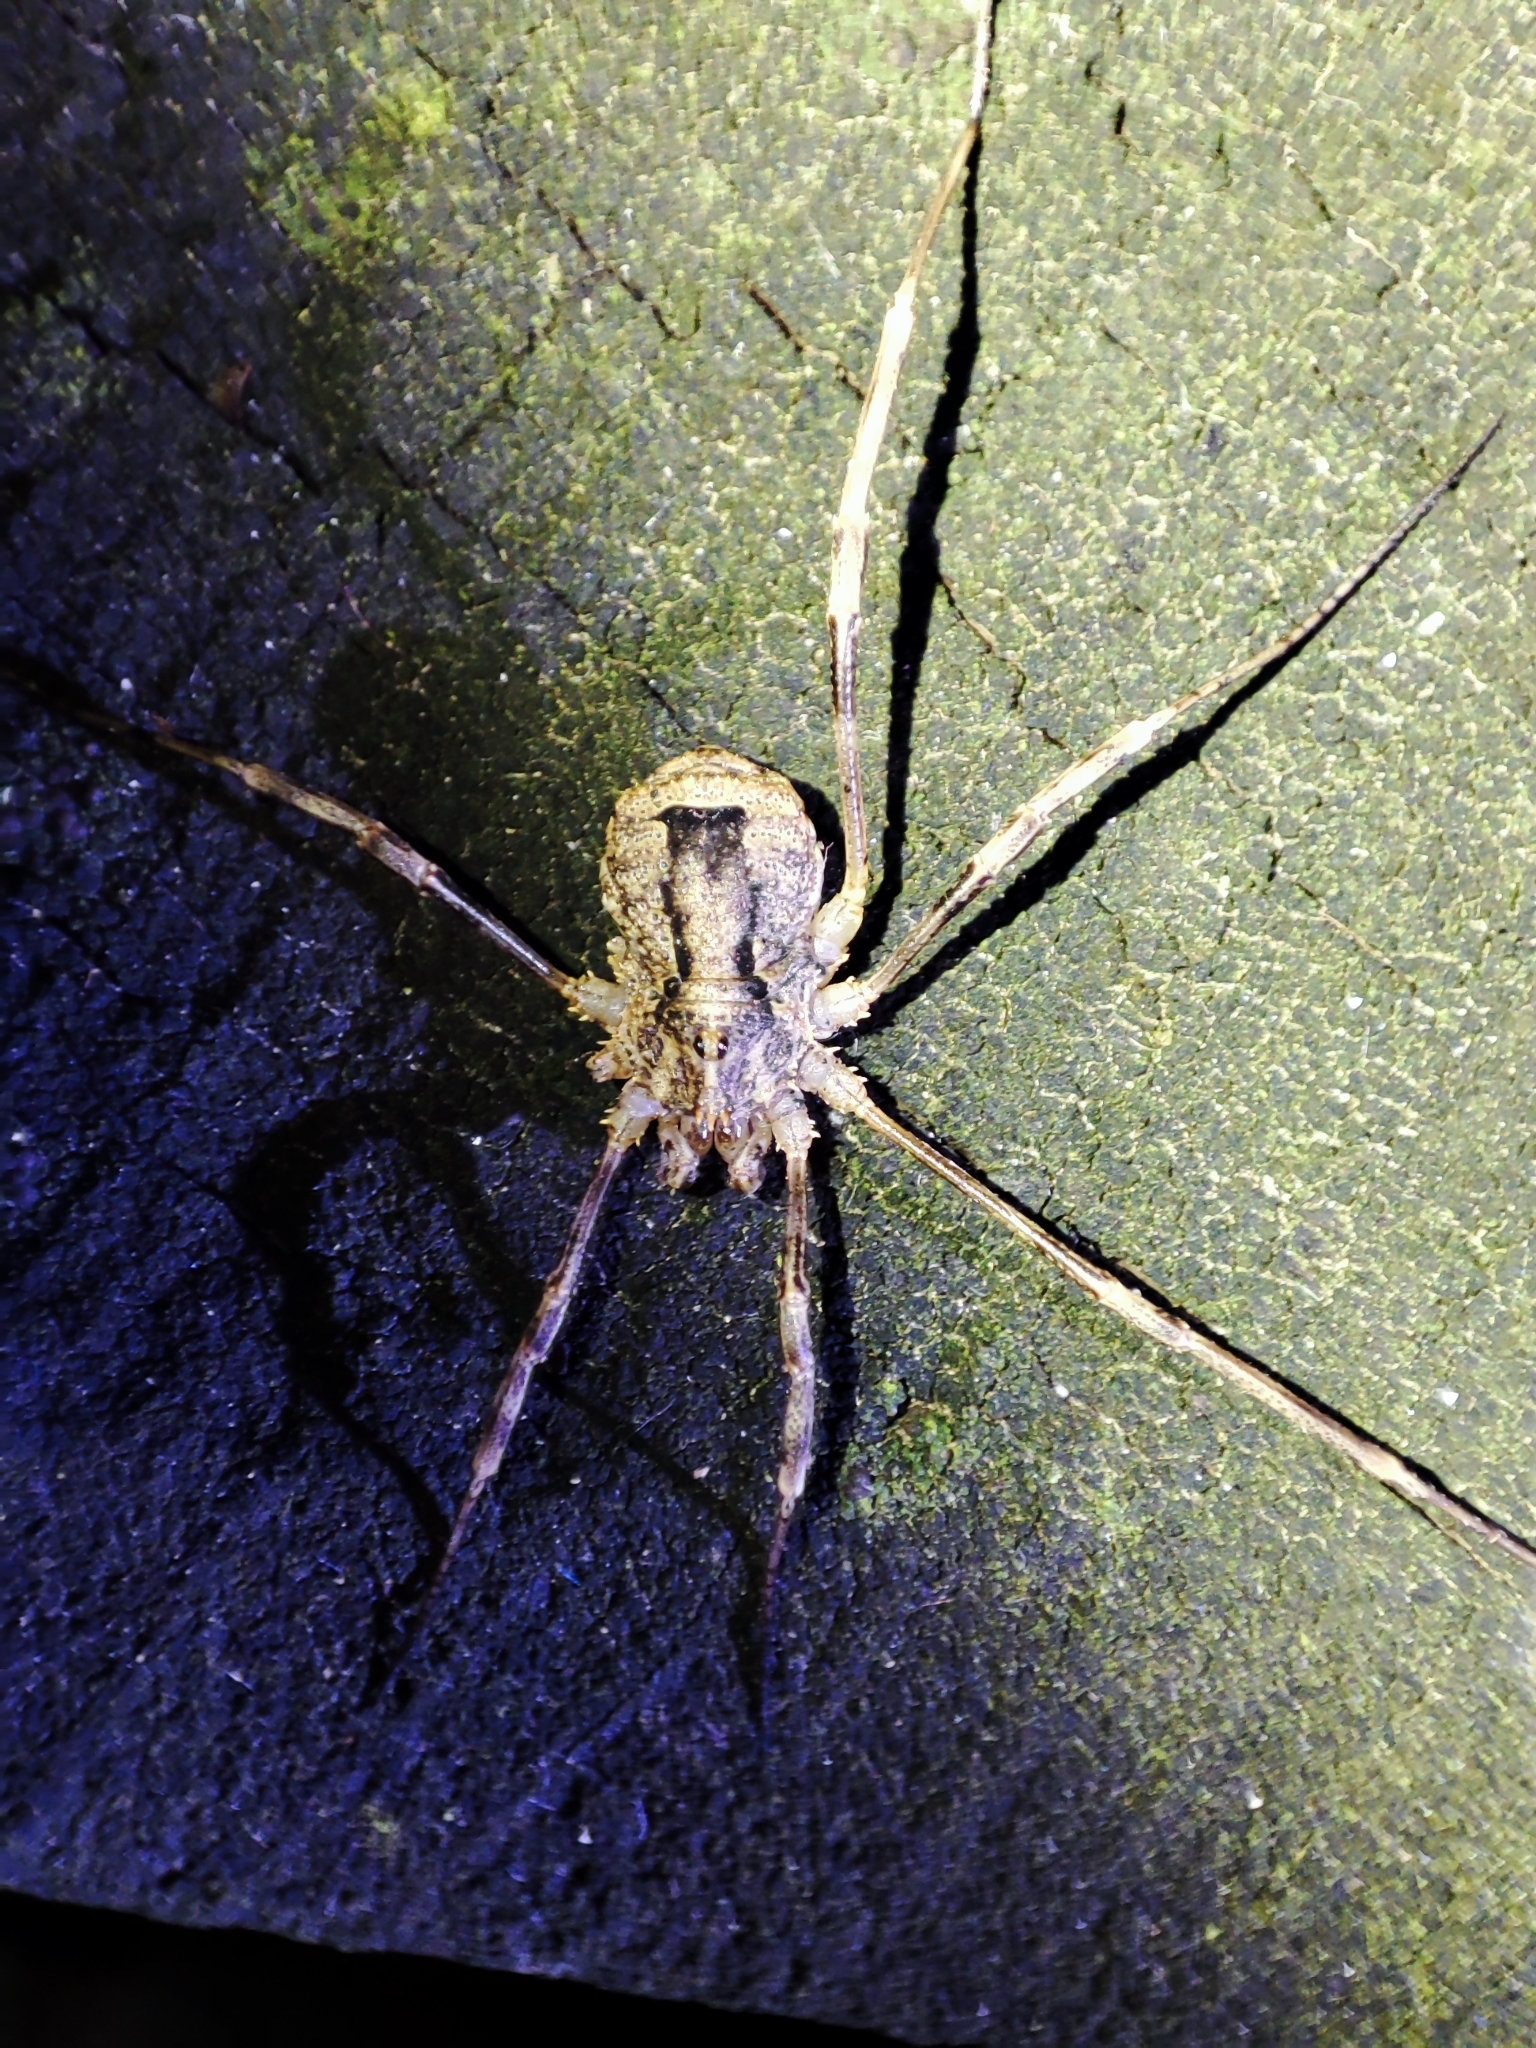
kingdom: Animalia
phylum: Arthropoda
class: Arachnida
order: Opiliones
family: Phalangiidae
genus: Odiellus
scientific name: Odiellus spinosus
